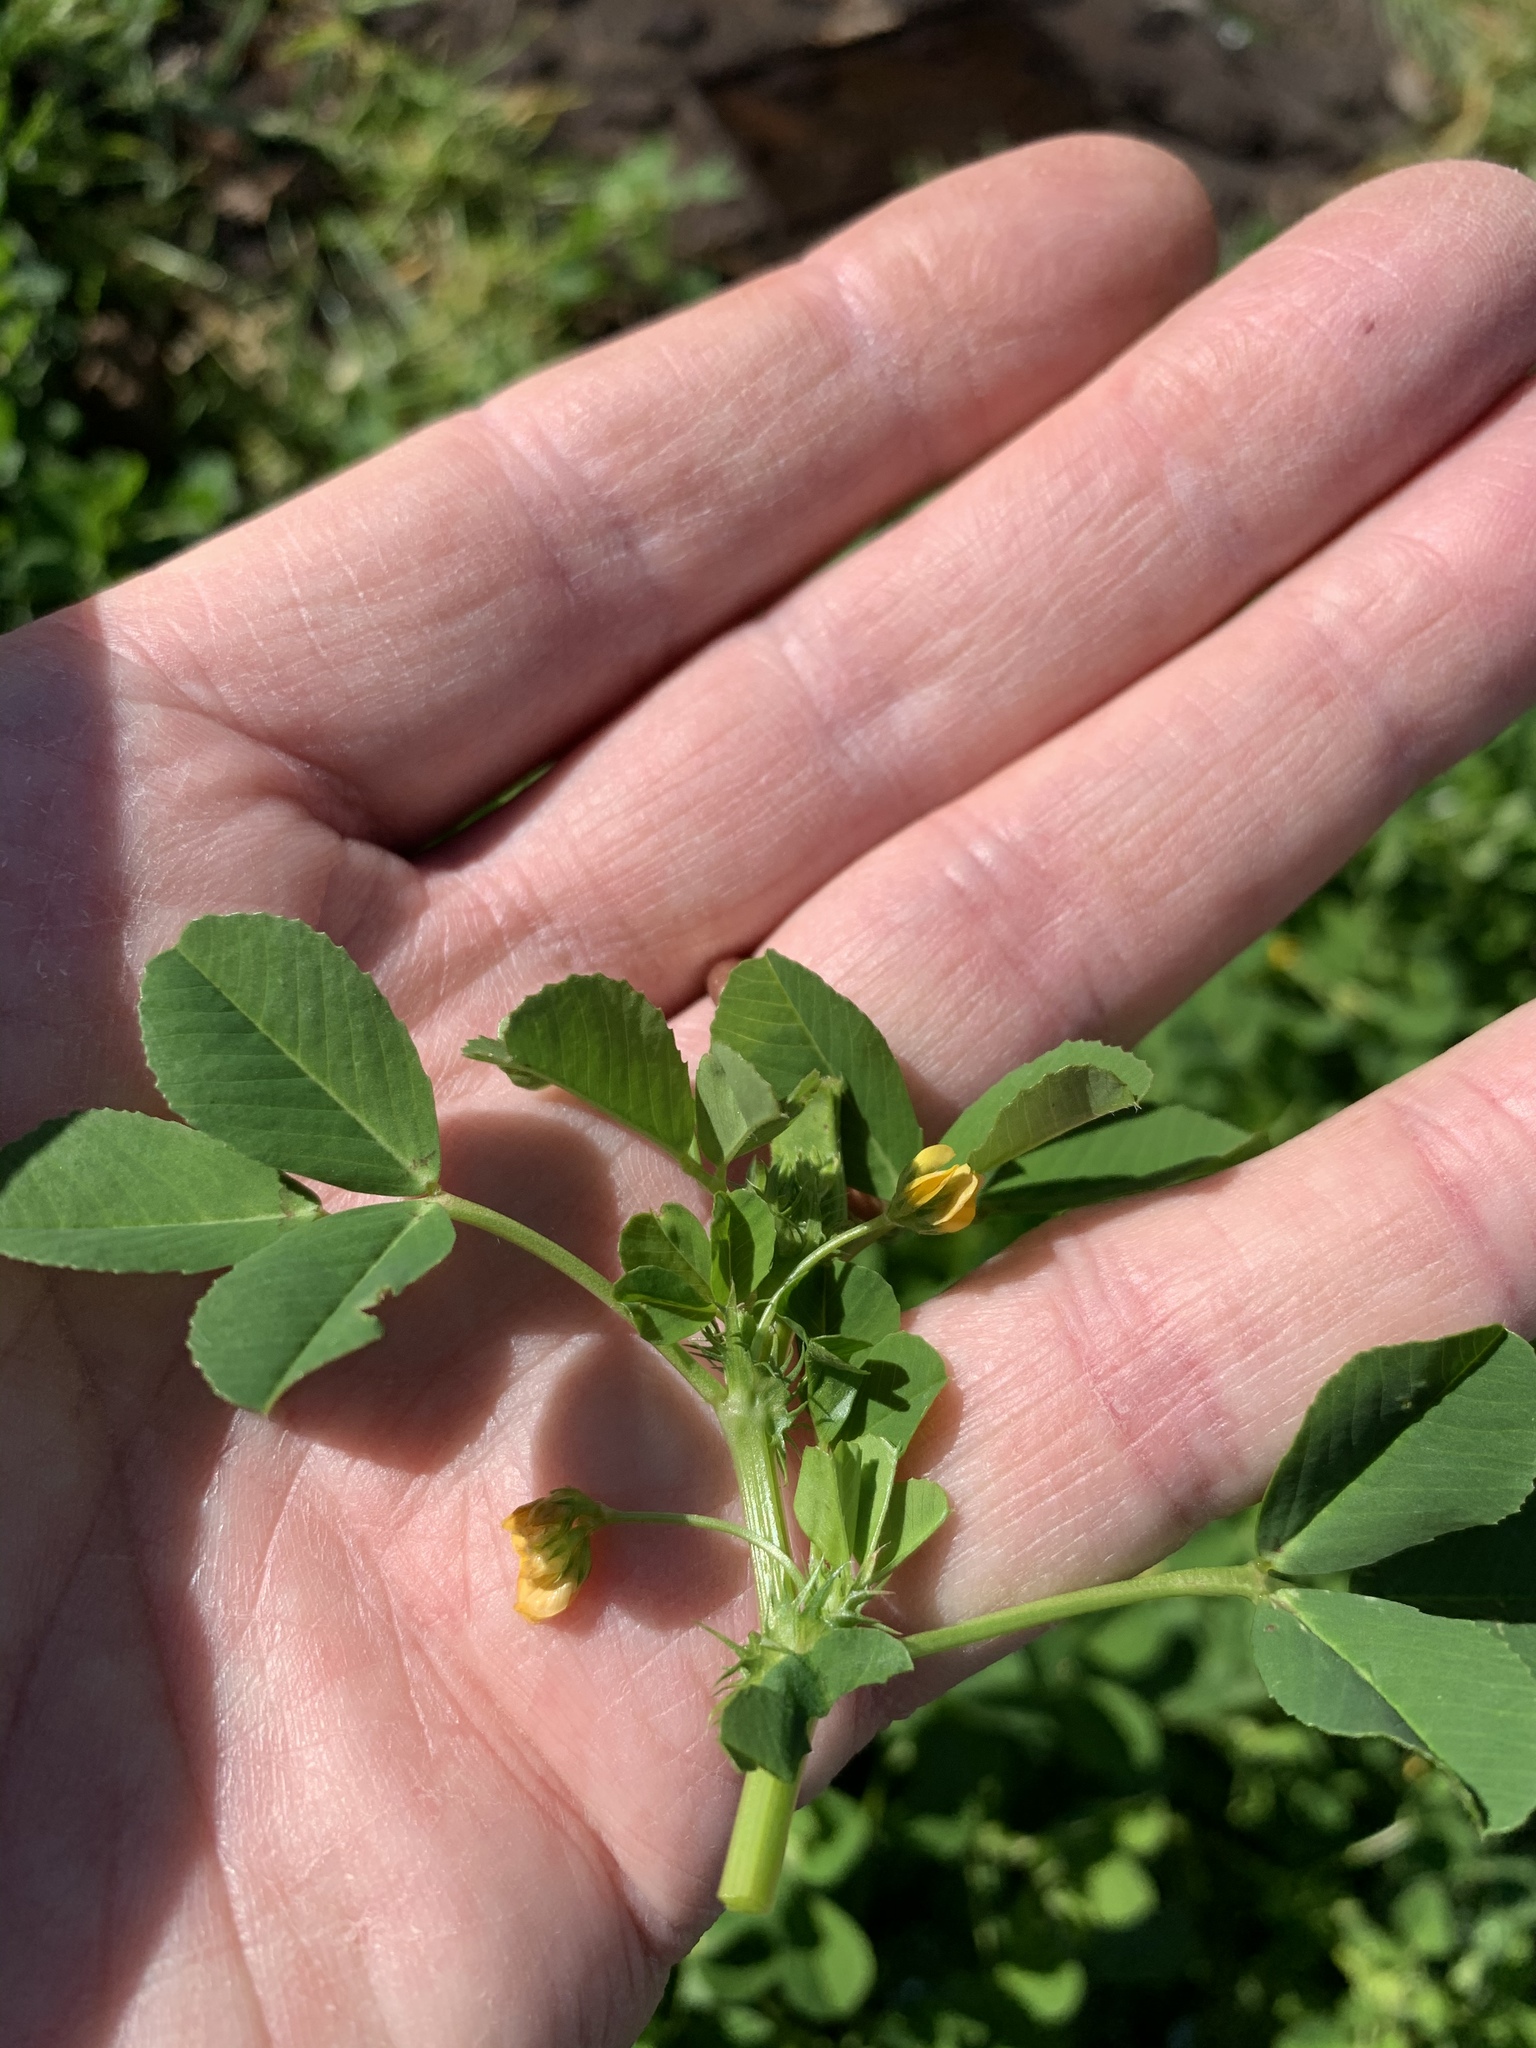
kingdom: Plantae
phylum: Tracheophyta
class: Magnoliopsida
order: Fabales
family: Fabaceae
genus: Medicago
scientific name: Medicago polymorpha
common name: Burclover
